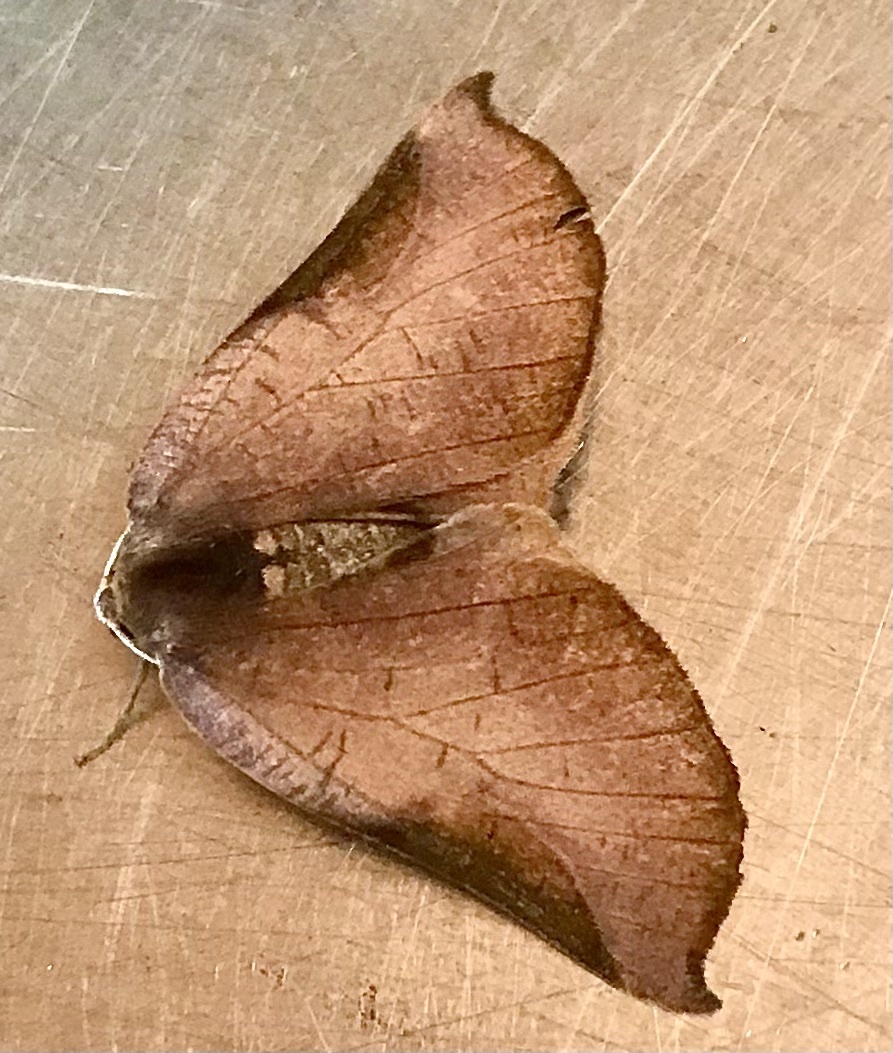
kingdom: Animalia
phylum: Arthropoda
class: Insecta
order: Lepidoptera
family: Geometridae
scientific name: Geometridae
